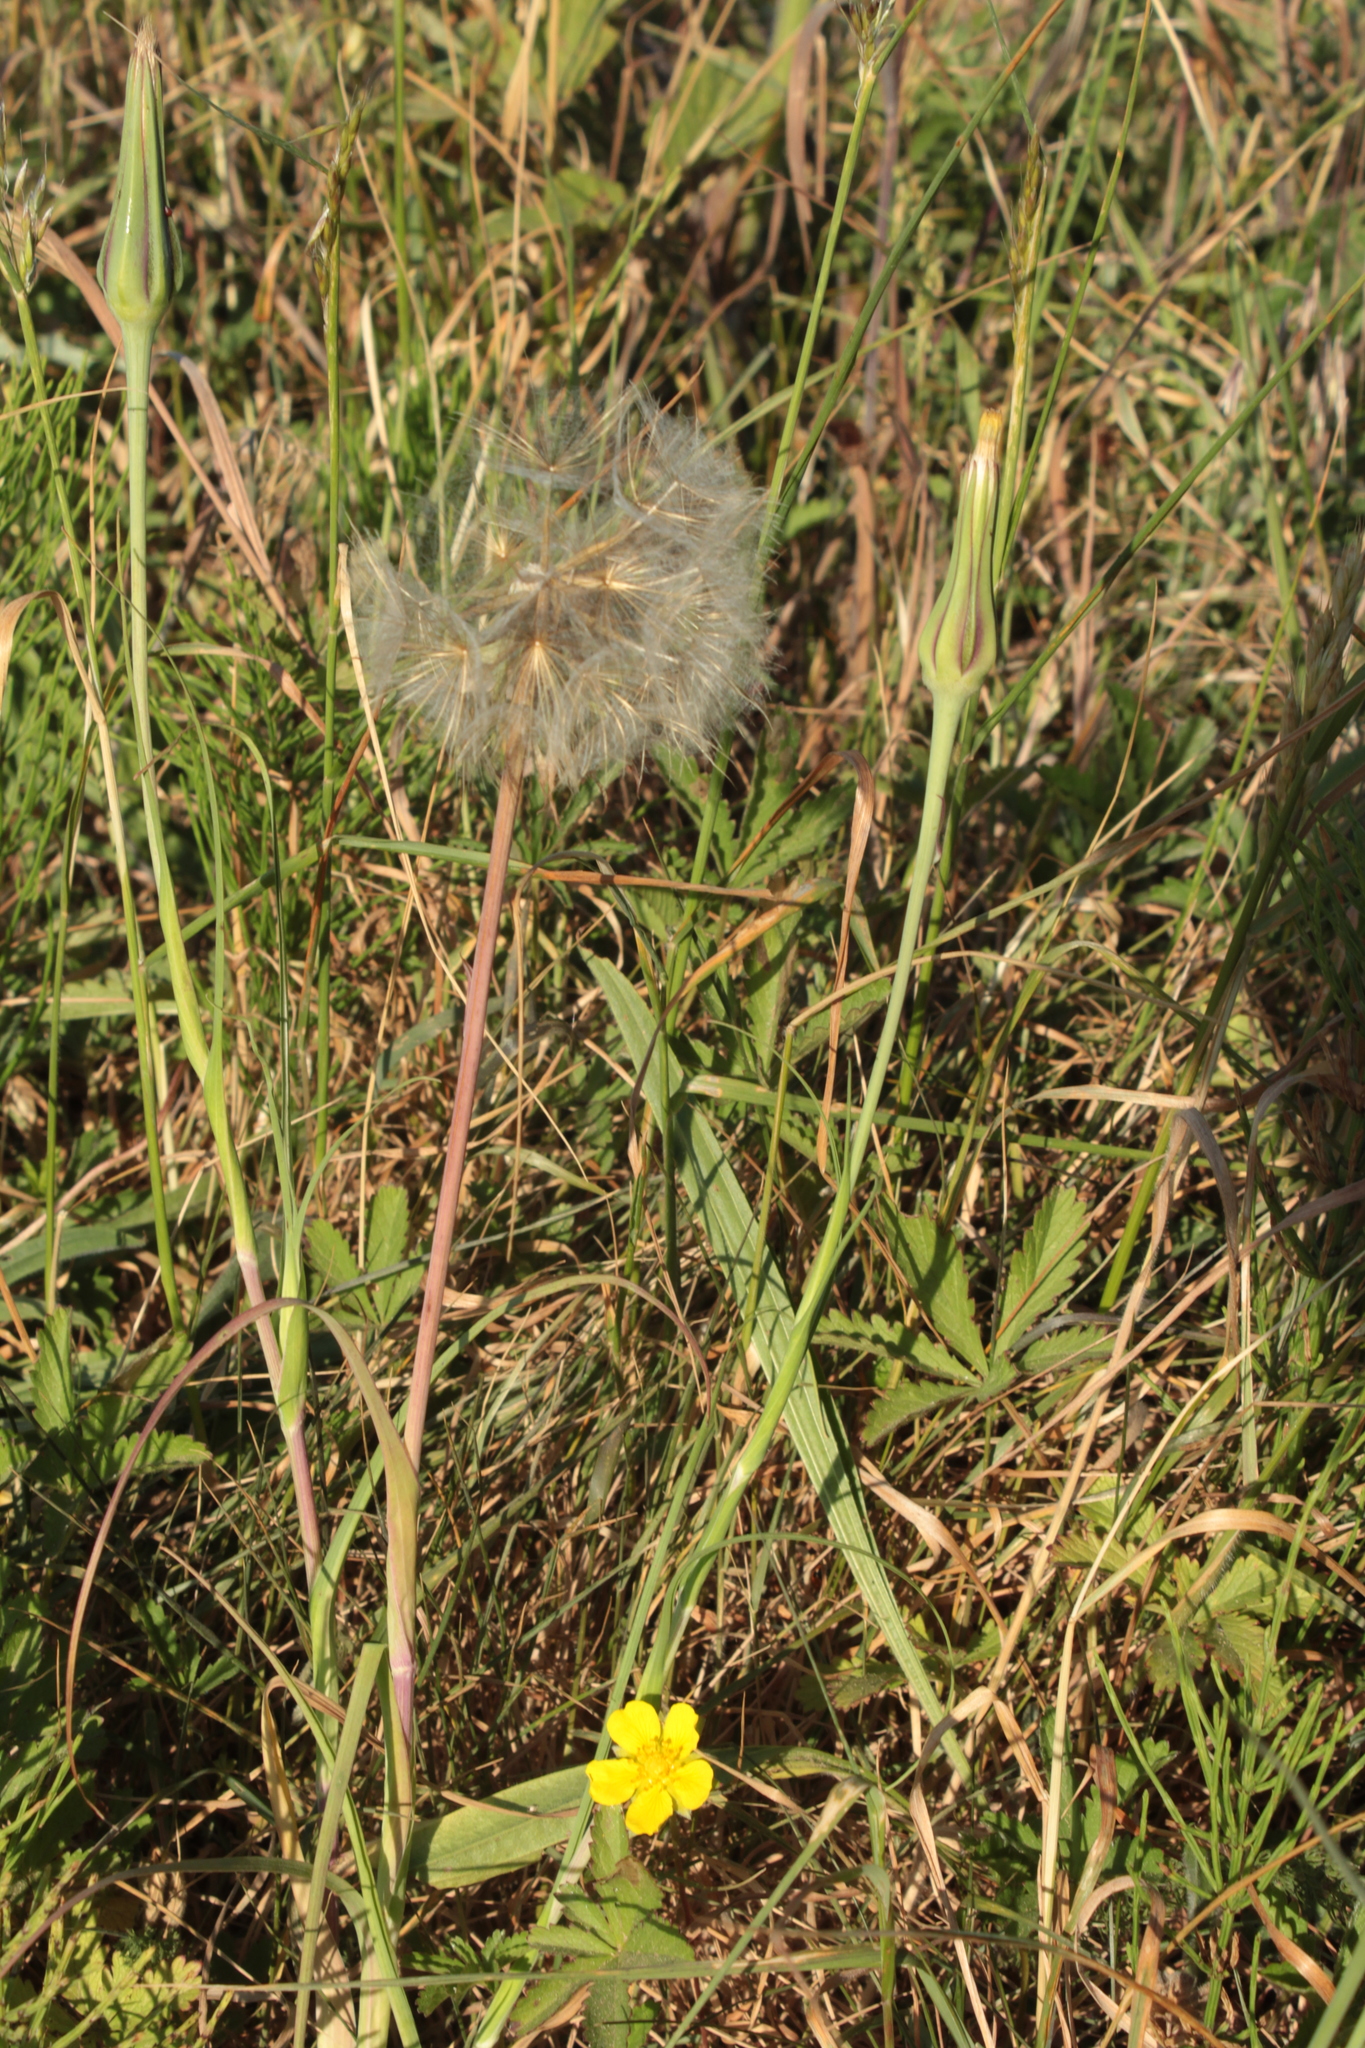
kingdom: Plantae
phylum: Tracheophyta
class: Magnoliopsida
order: Asterales
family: Asteraceae
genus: Tragopogon
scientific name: Tragopogon pratensis
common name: Goat's-beard
